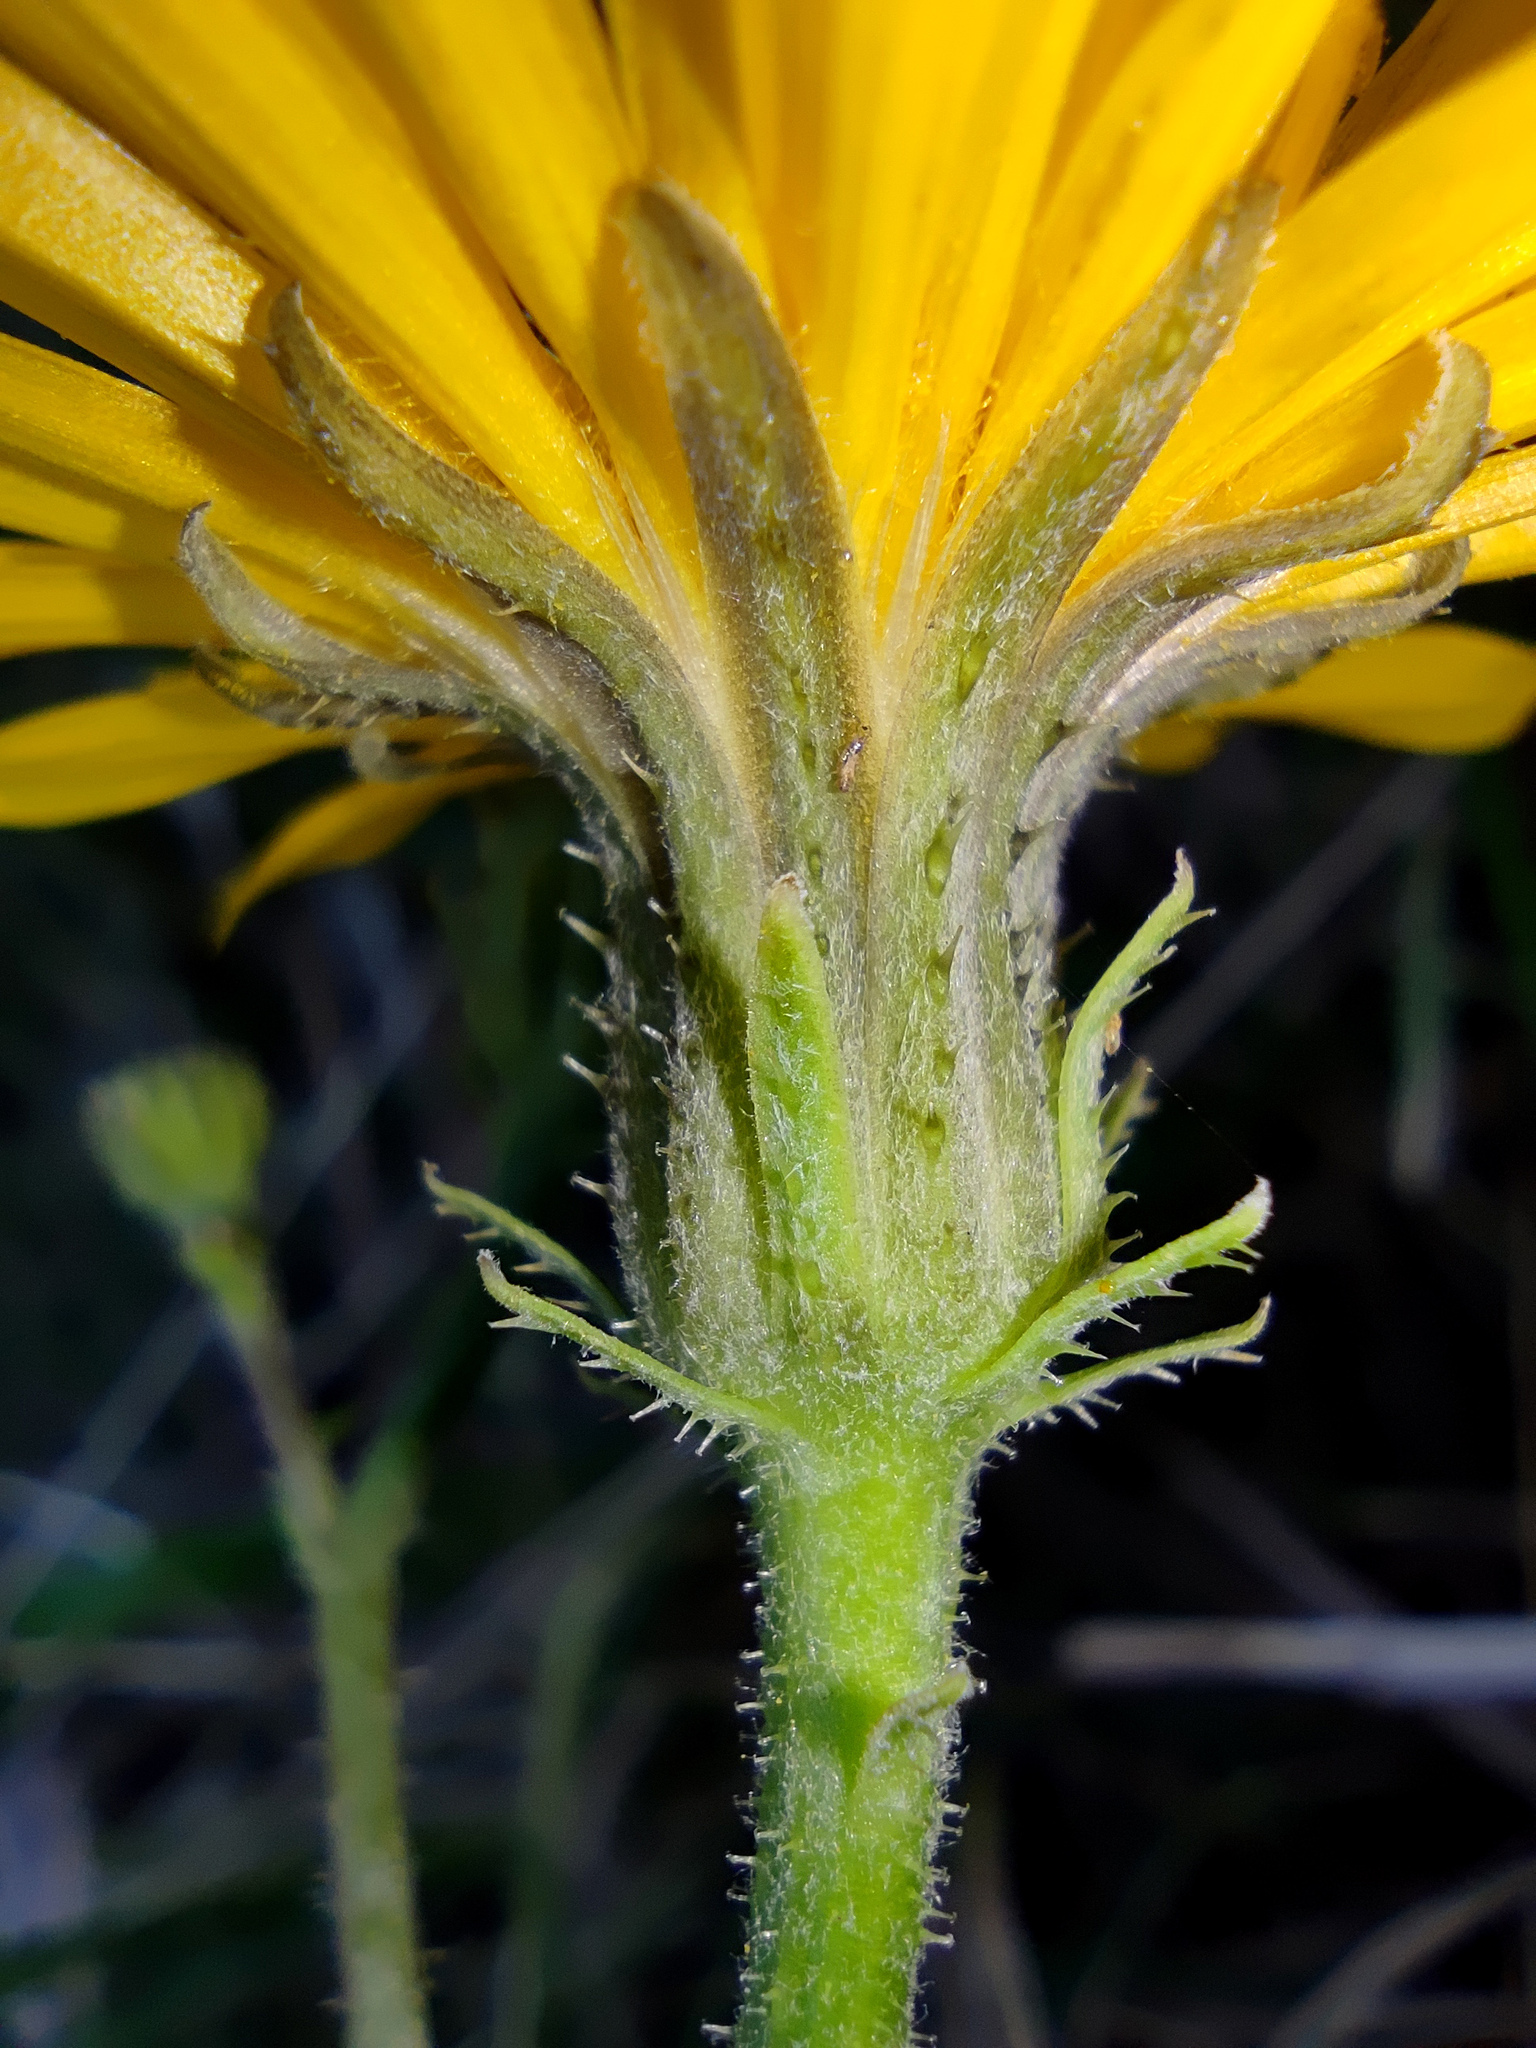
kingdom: Plantae
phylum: Tracheophyta
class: Magnoliopsida
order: Asterales
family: Asteraceae
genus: Picris
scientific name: Picris hieracioides
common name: Hawkweed oxtongue
